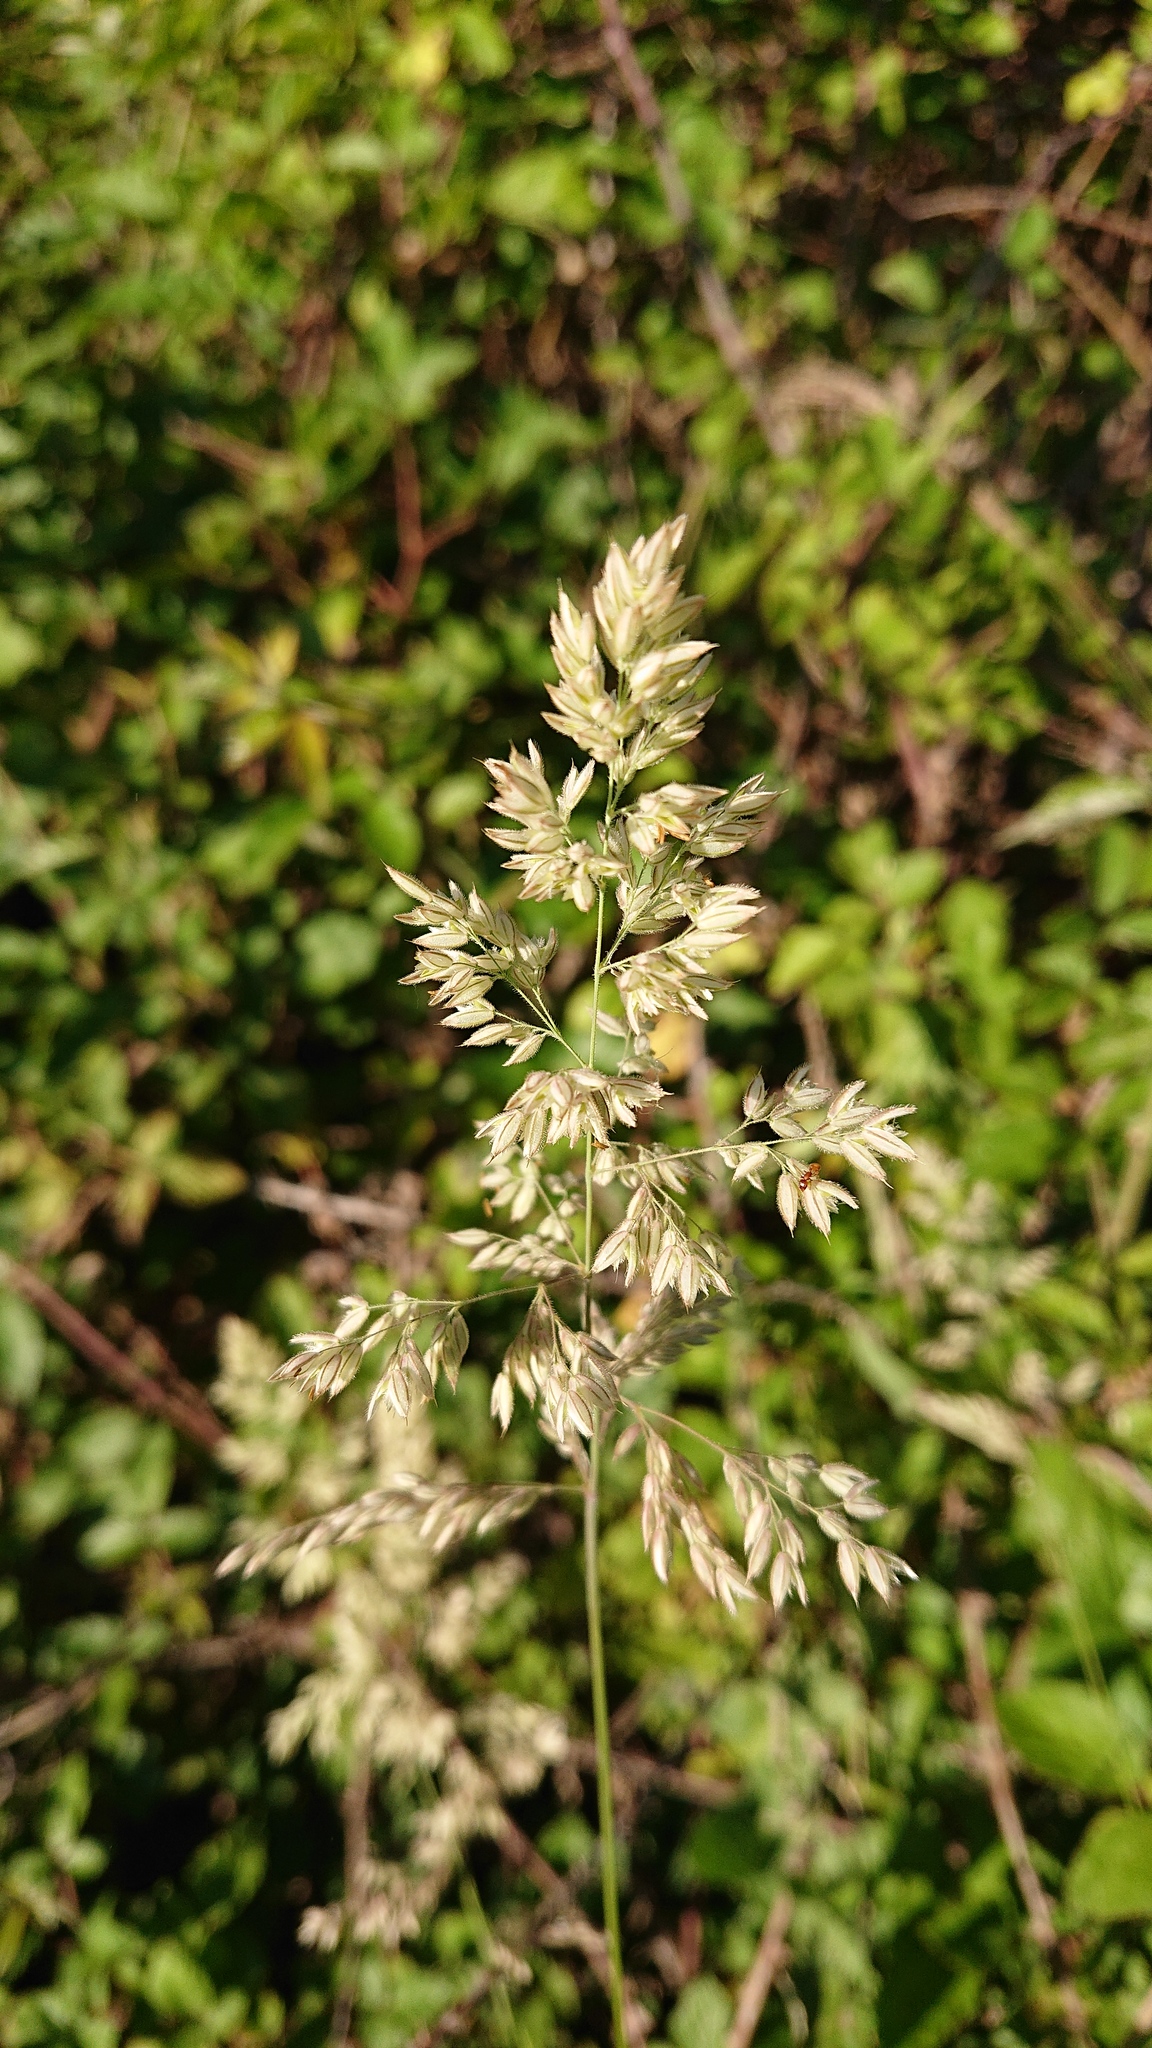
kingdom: Plantae
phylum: Tracheophyta
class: Liliopsida
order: Poales
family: Poaceae
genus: Holcus
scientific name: Holcus lanatus
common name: Yorkshire-fog
